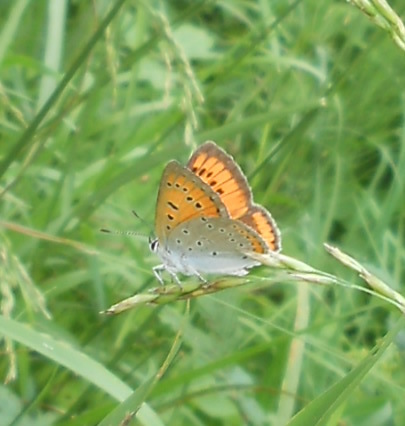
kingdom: Animalia
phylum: Arthropoda
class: Insecta
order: Lepidoptera
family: Lycaenidae
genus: Lycaena
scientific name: Lycaena dispar
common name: Large copper
